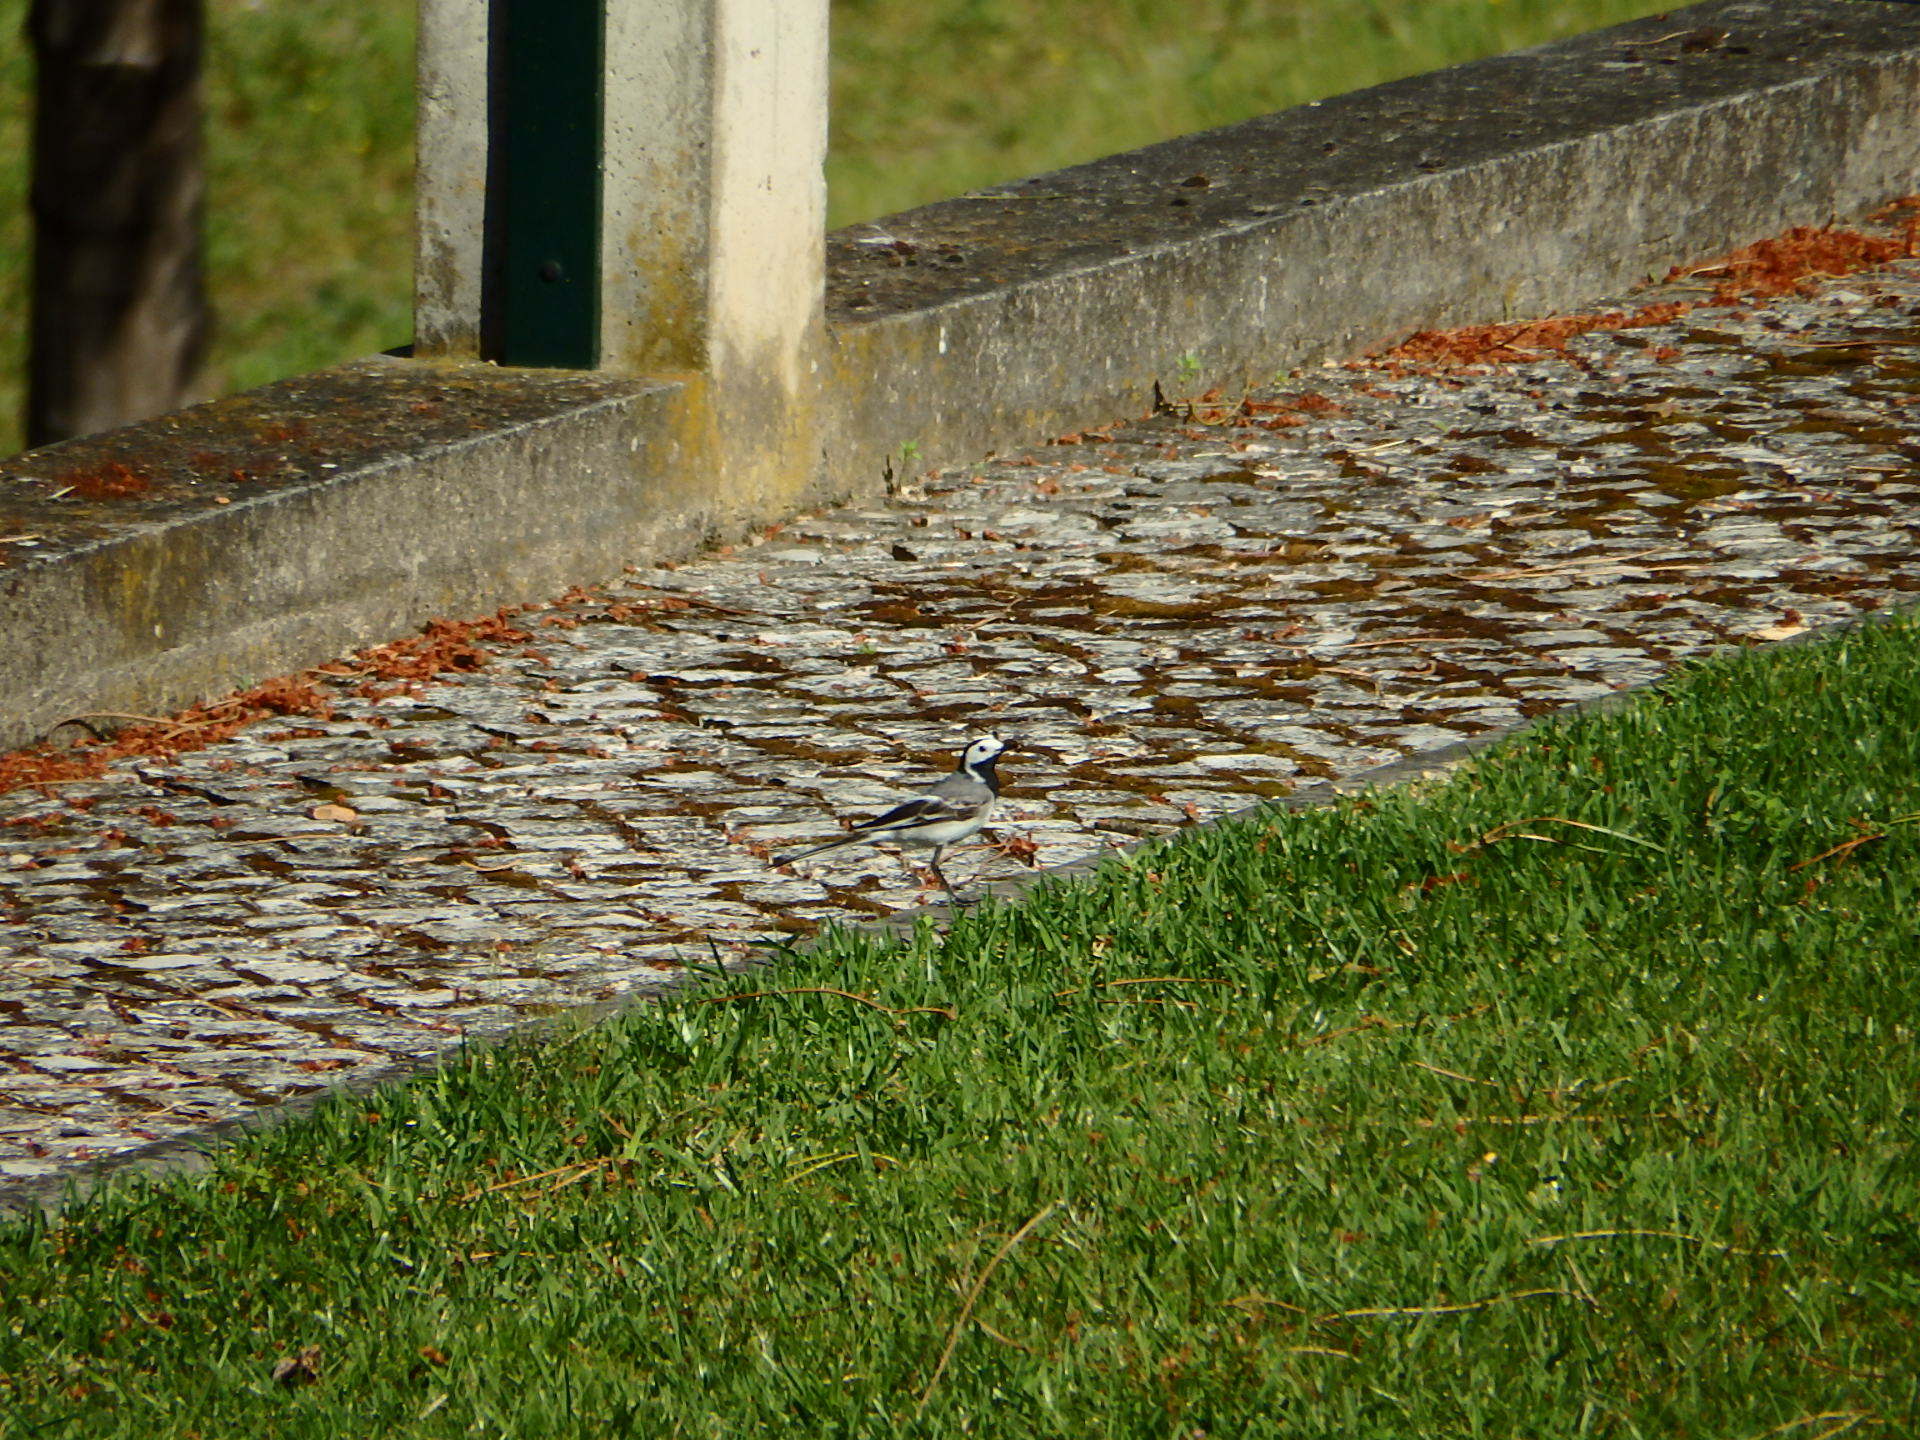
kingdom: Animalia
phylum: Chordata
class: Aves
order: Passeriformes
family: Motacillidae
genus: Motacilla
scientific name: Motacilla alba
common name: White wagtail
